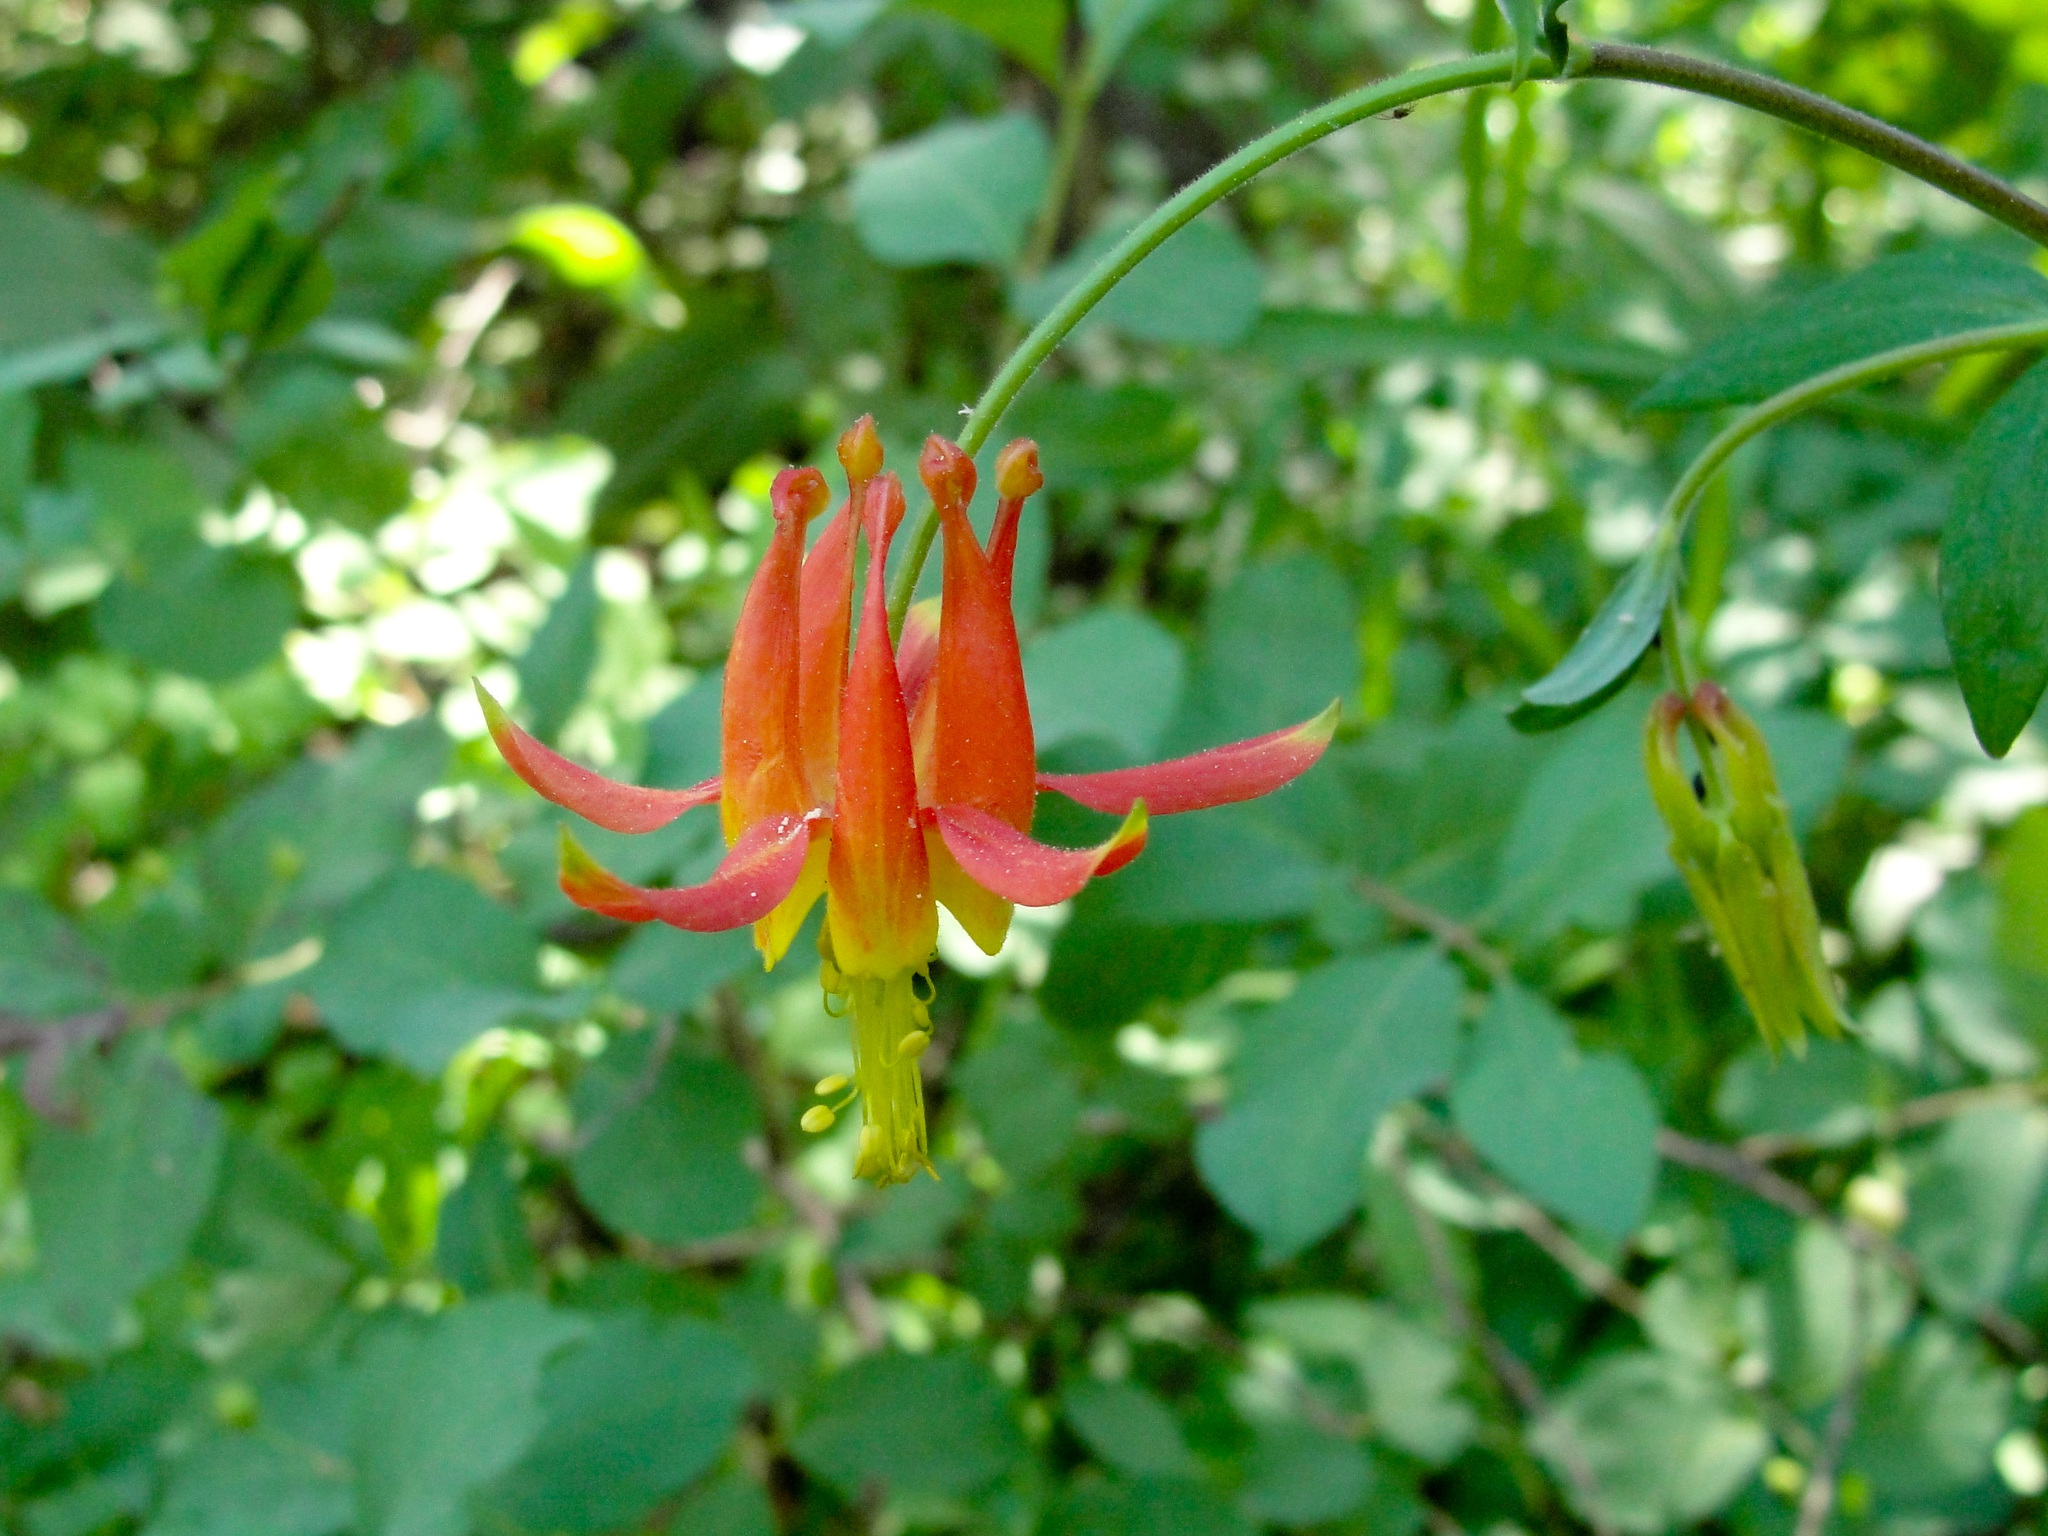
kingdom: Plantae
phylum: Tracheophyta
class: Magnoliopsida
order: Ranunculales
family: Ranunculaceae
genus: Aquilegia
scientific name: Aquilegia formosa
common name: Sitka columbine
